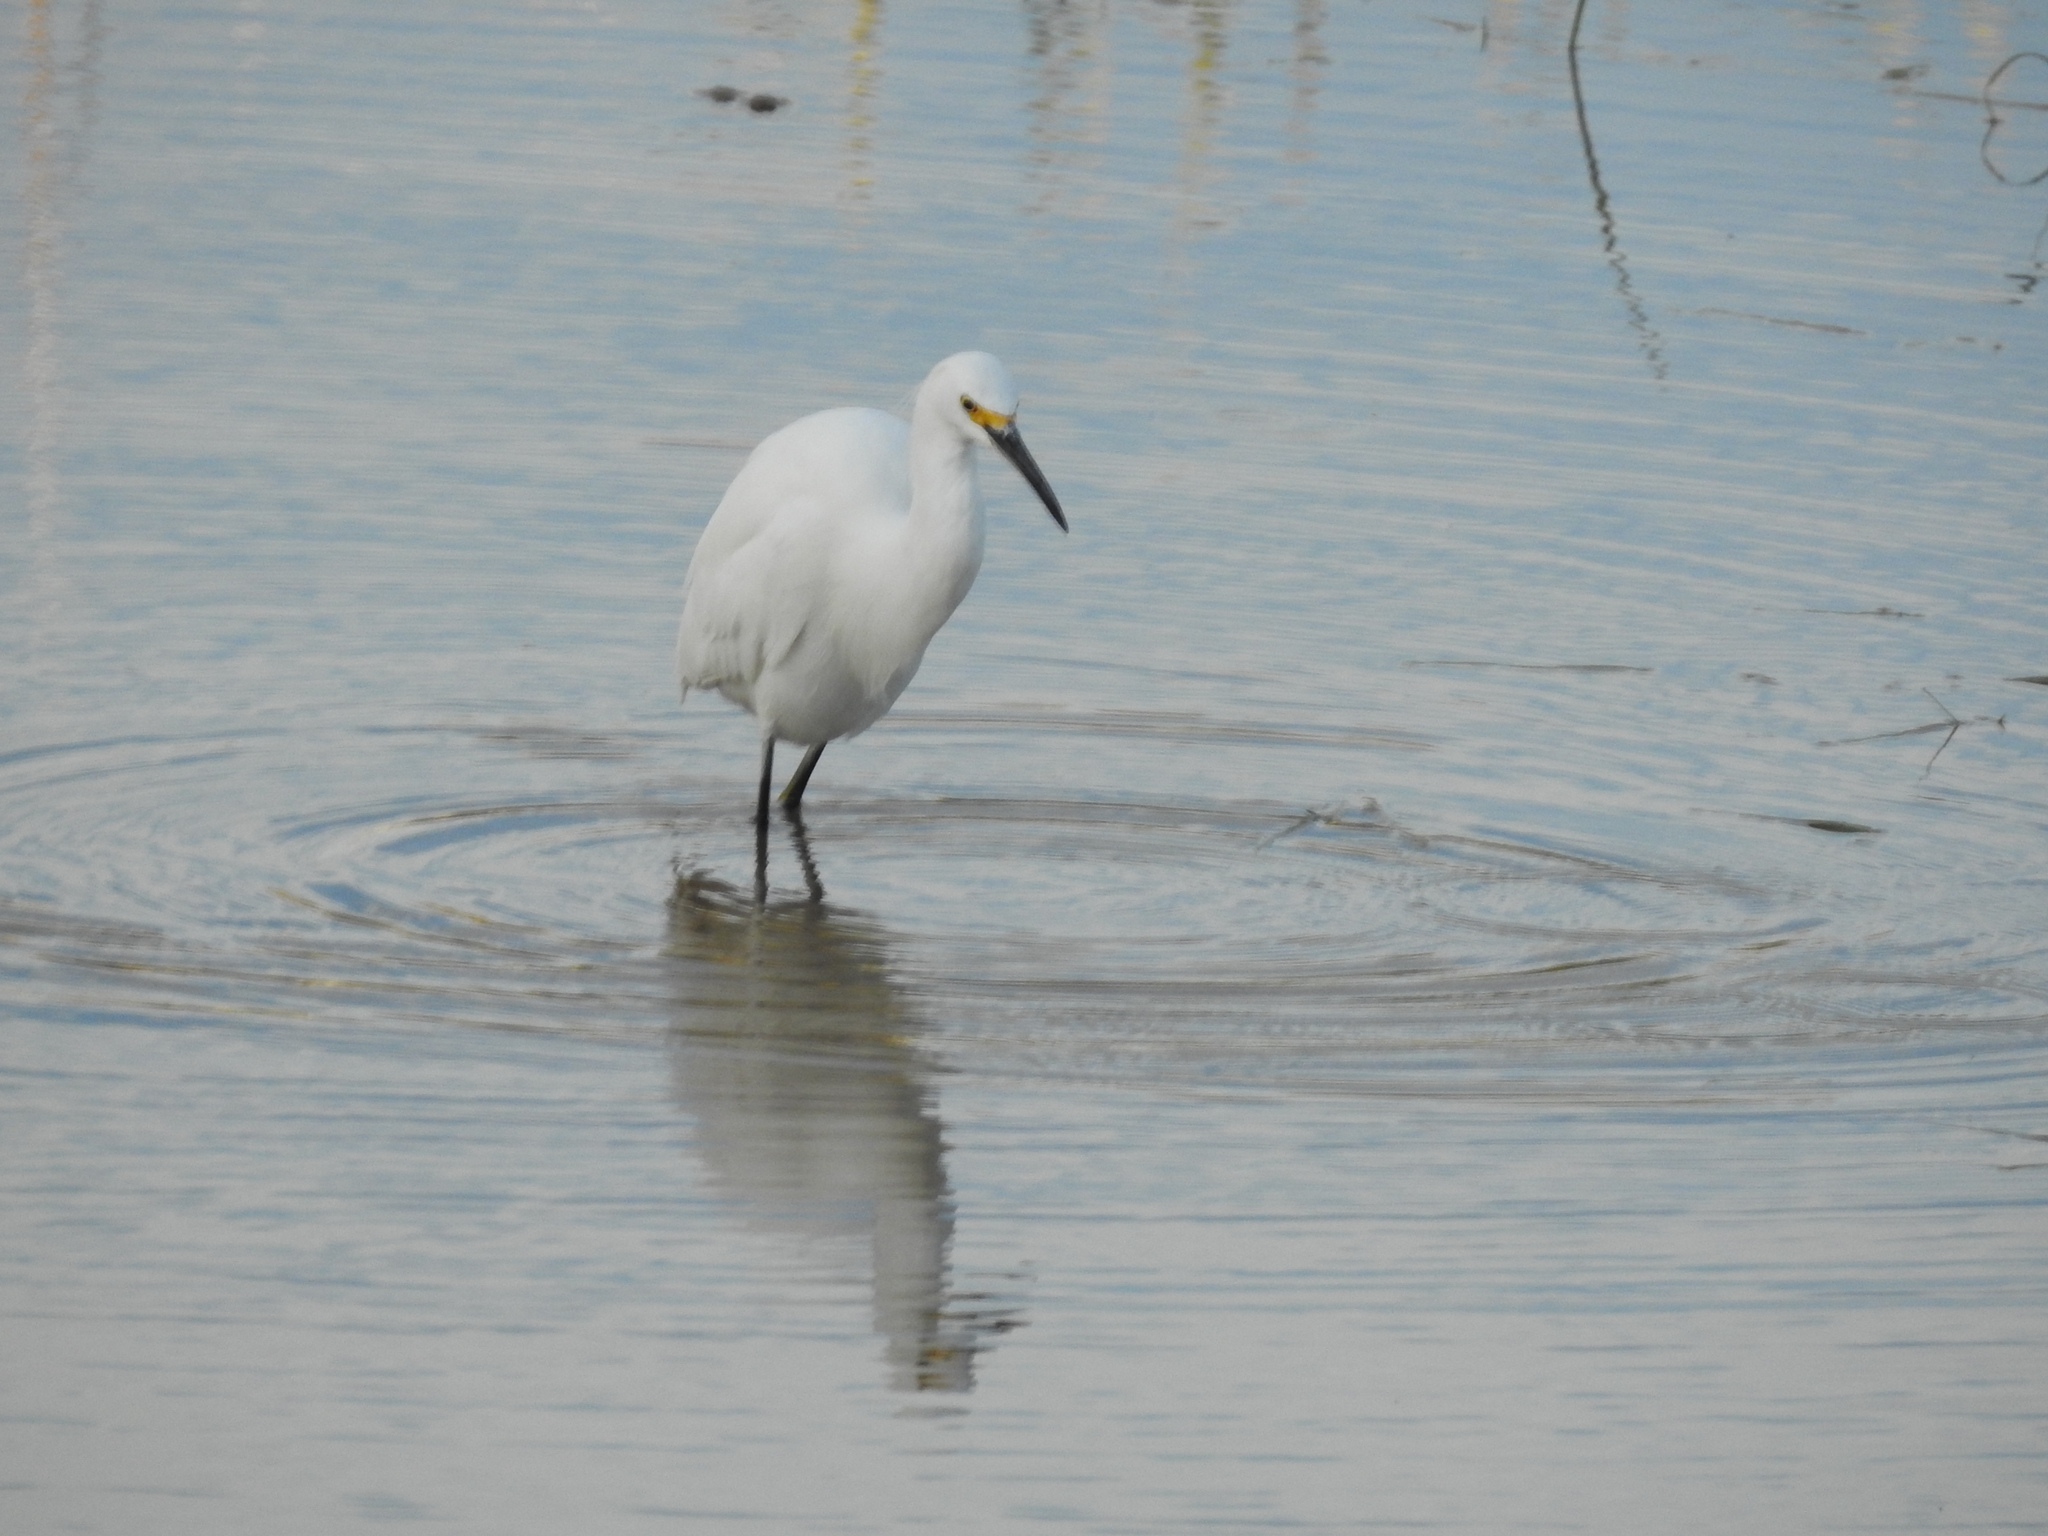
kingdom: Animalia
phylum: Chordata
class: Aves
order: Pelecaniformes
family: Ardeidae
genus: Egretta
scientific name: Egretta thula
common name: Snowy egret
